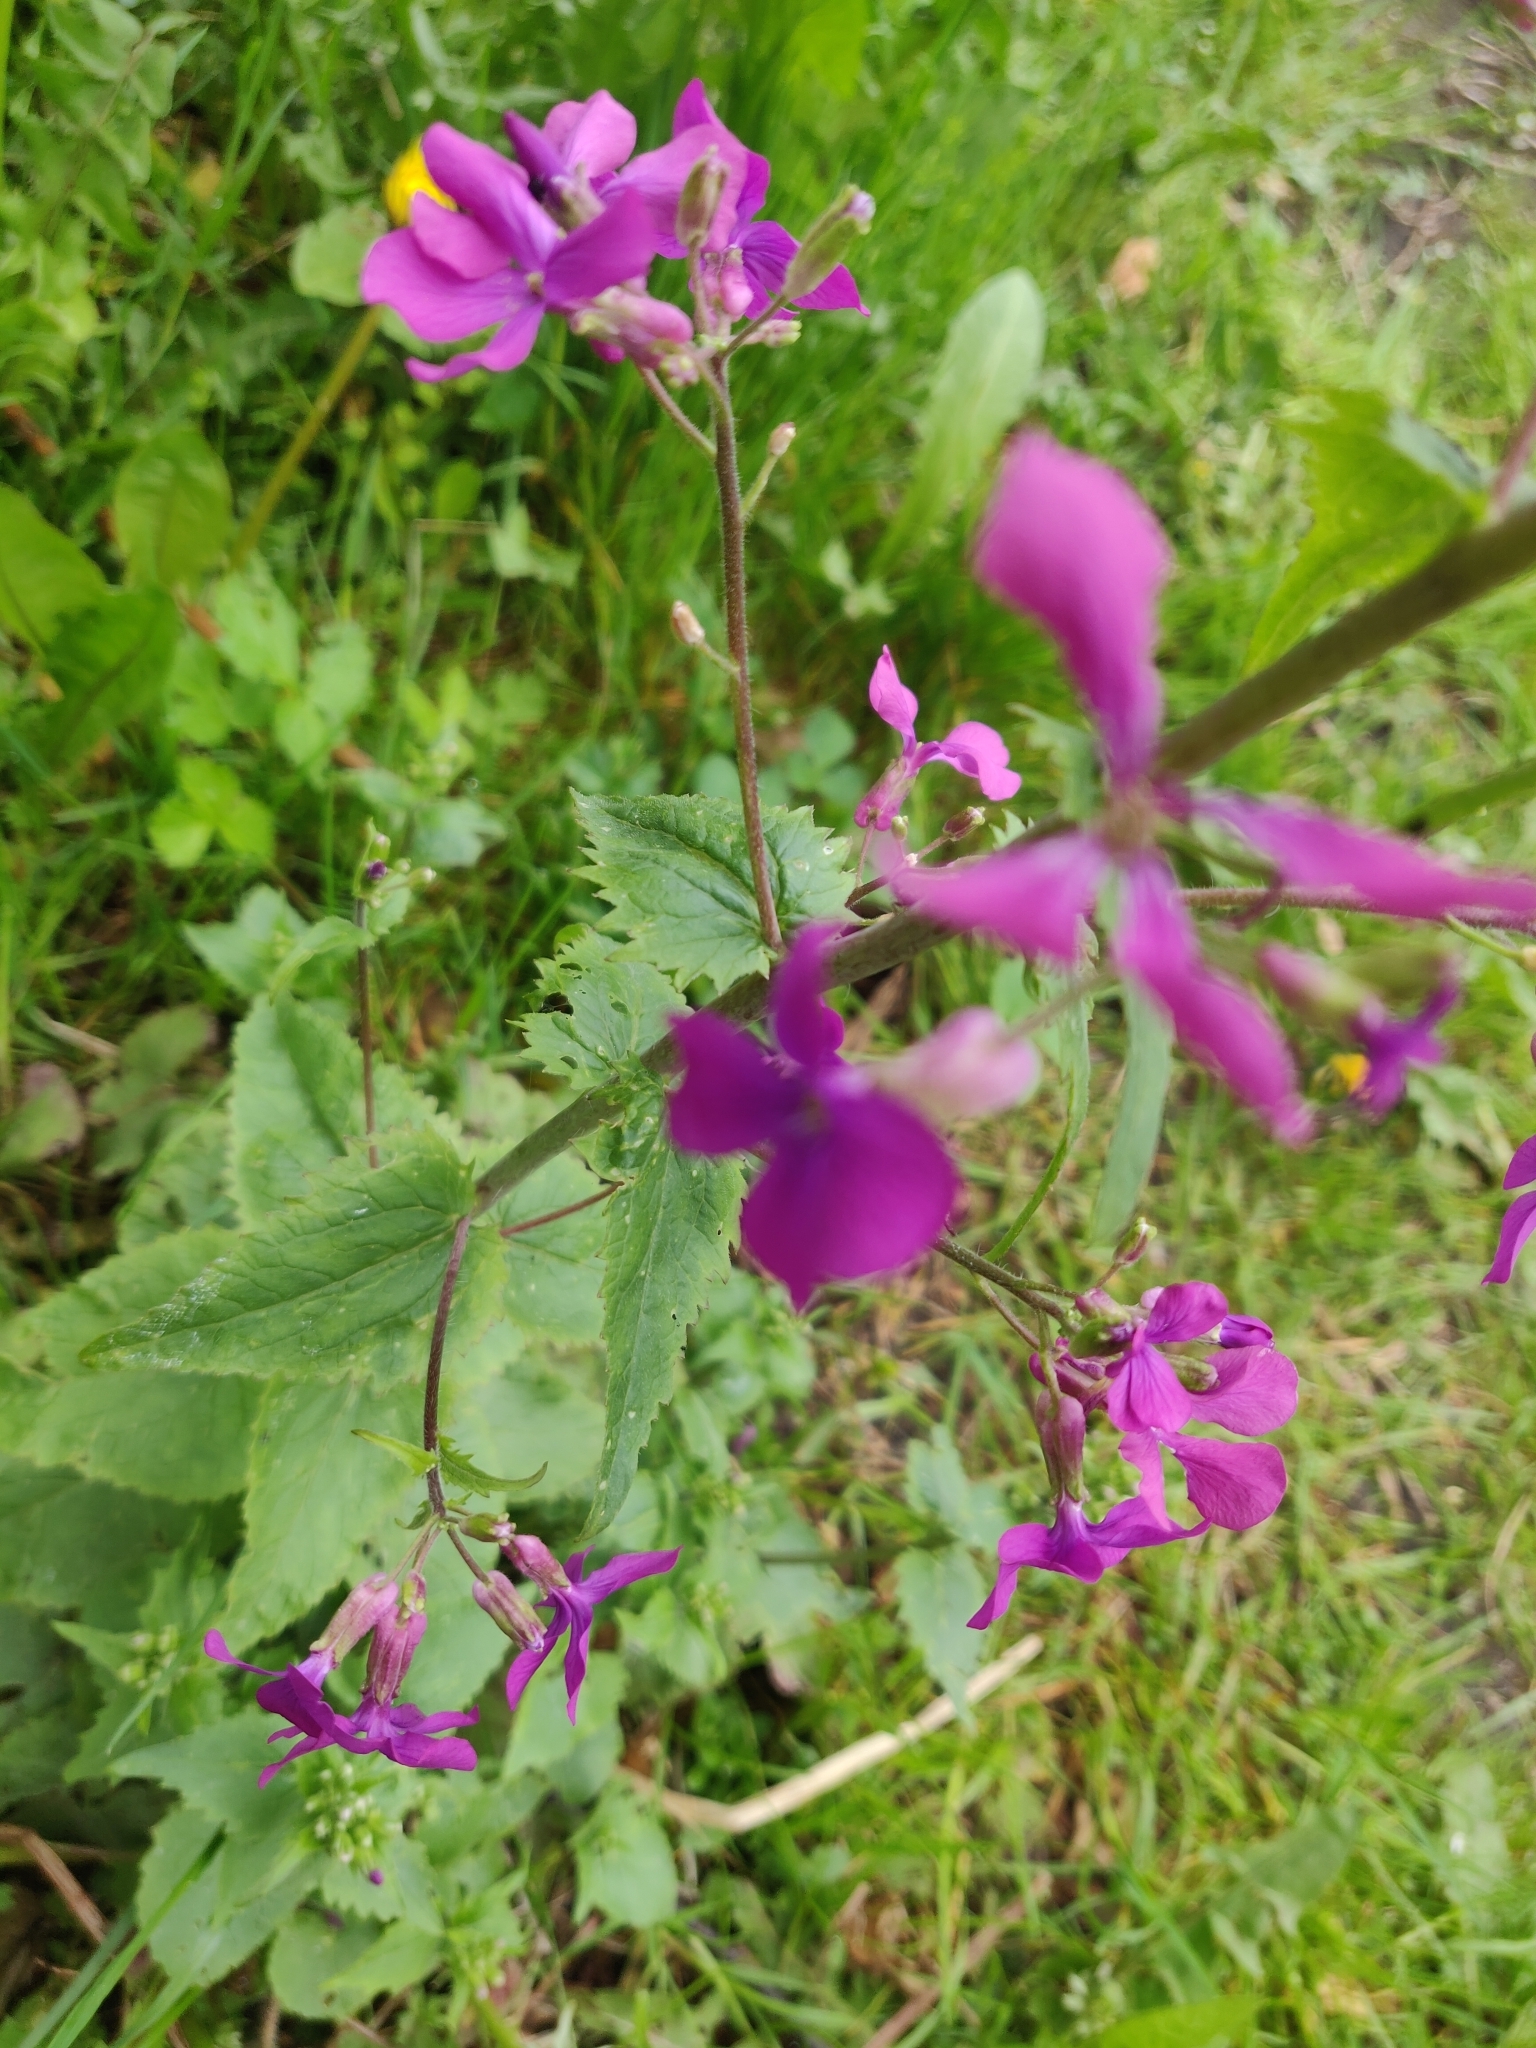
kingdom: Plantae
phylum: Tracheophyta
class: Magnoliopsida
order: Brassicales
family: Brassicaceae
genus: Lunaria
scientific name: Lunaria annua
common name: Honesty
